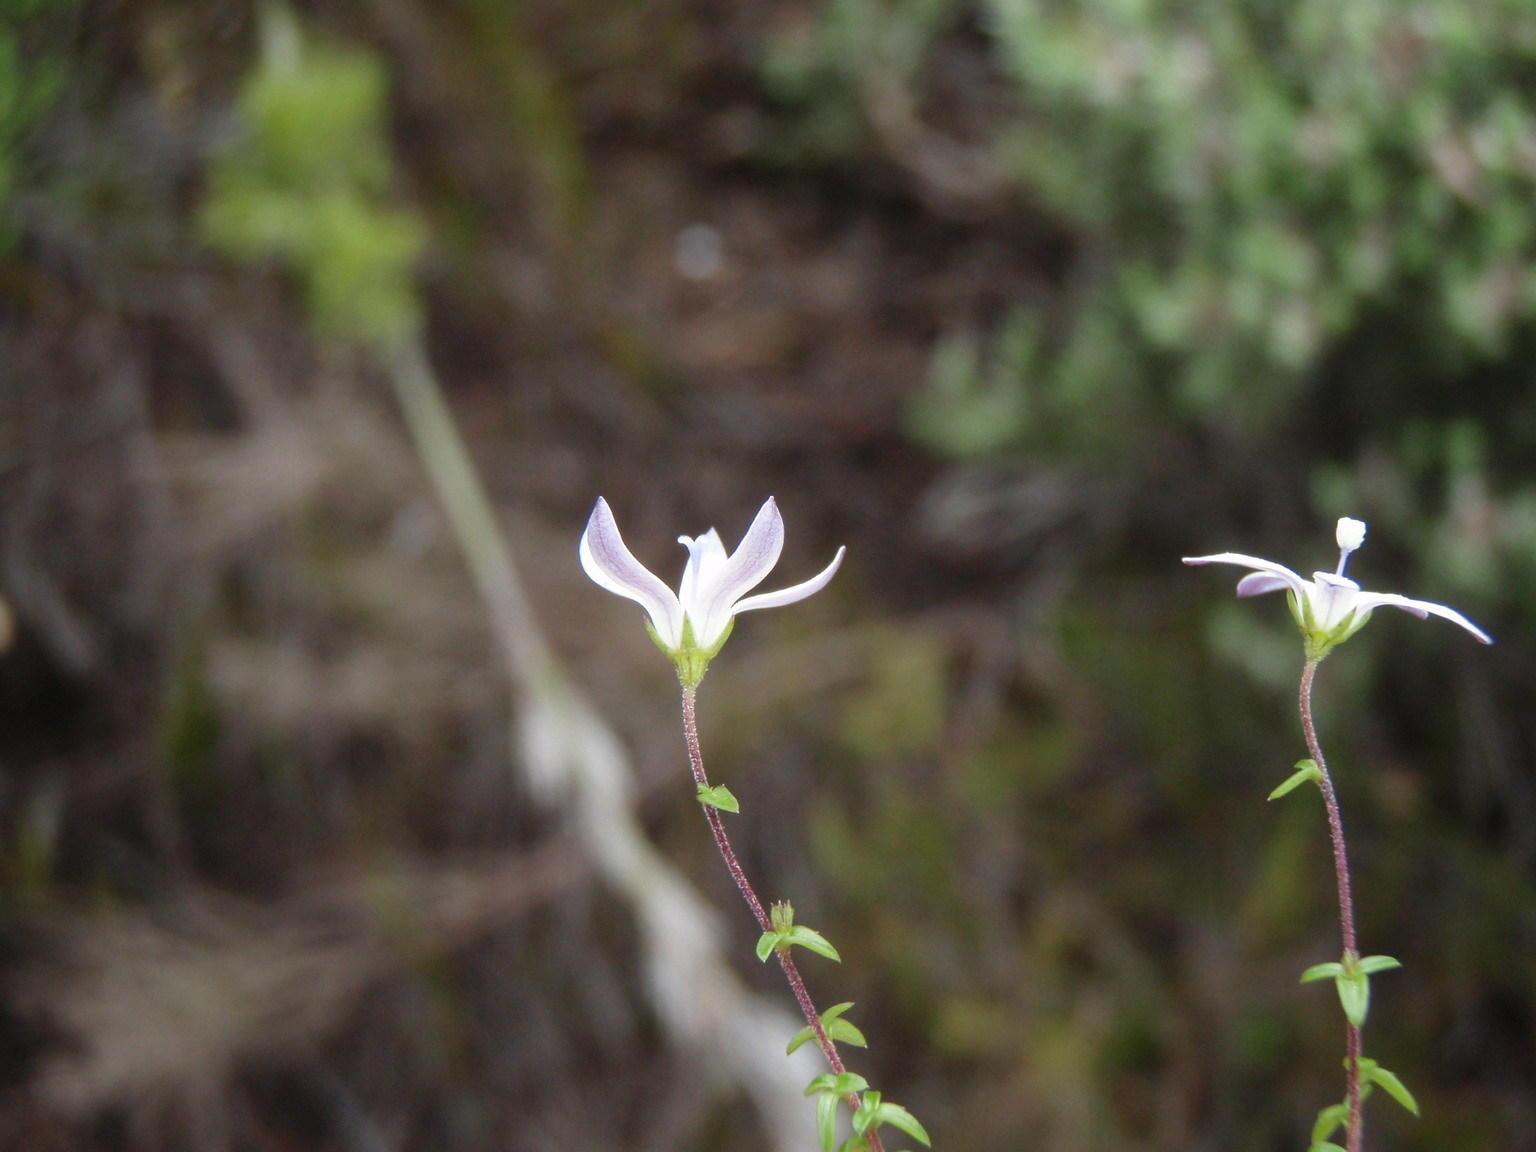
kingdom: Plantae
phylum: Tracheophyta
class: Magnoliopsida
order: Asterales
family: Campanulaceae
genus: Wahlenbergia
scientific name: Wahlenbergia neorigida
